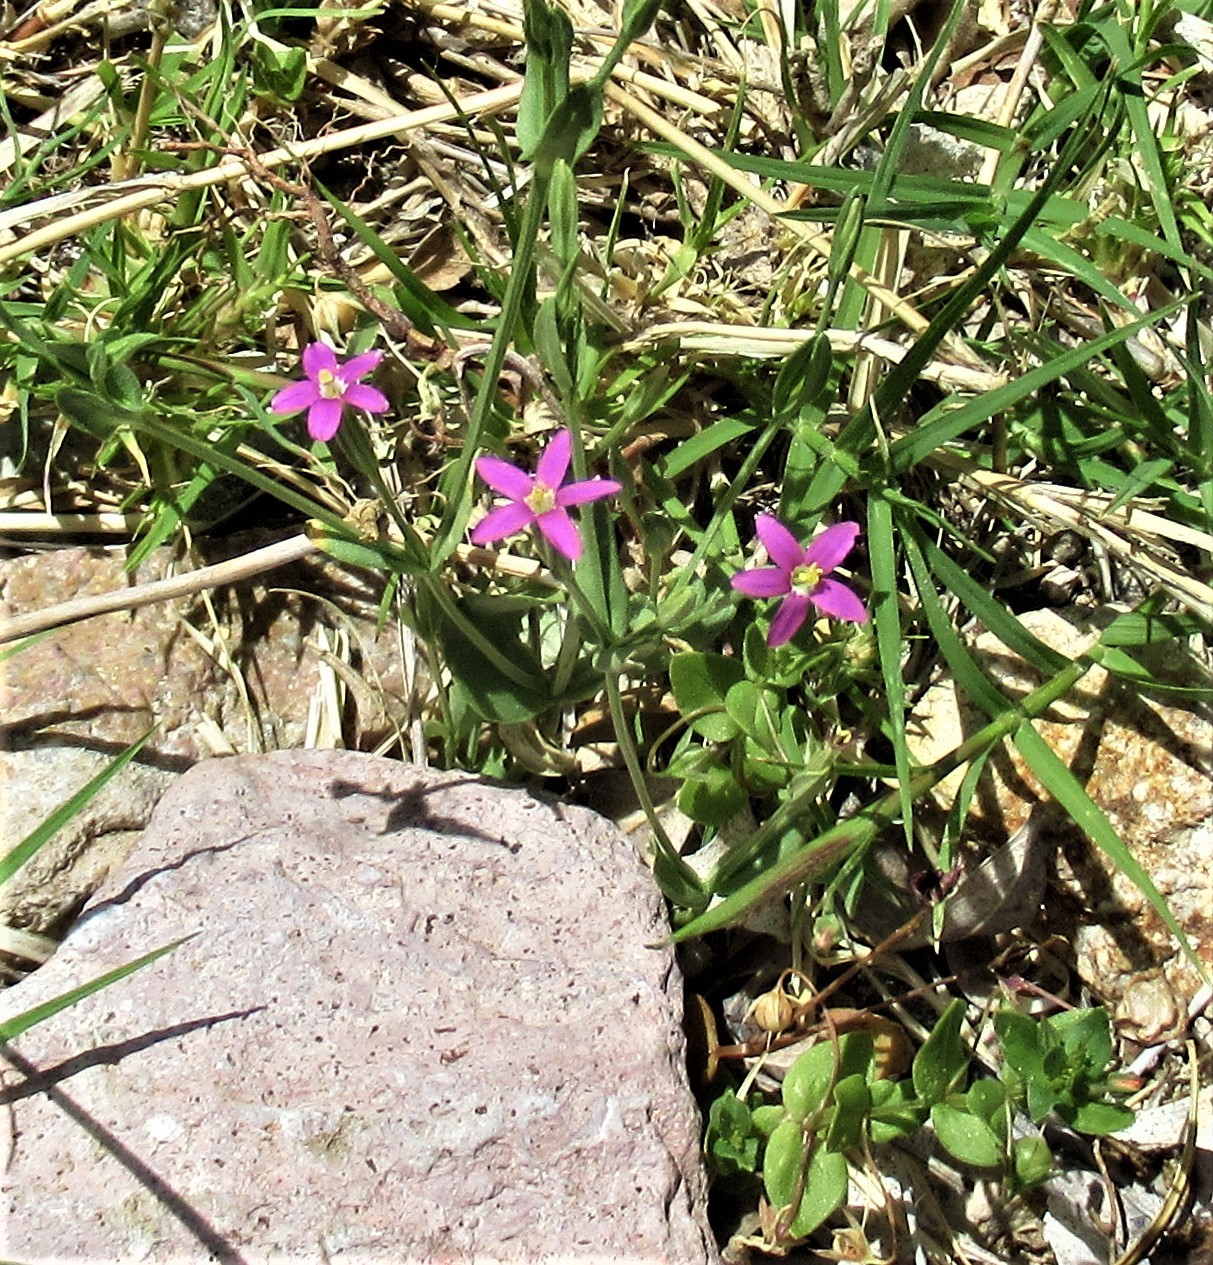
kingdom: Plantae
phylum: Tracheophyta
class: Magnoliopsida
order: Gentianales
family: Gentianaceae
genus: Zeltnera
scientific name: Zeltnera arizonica
